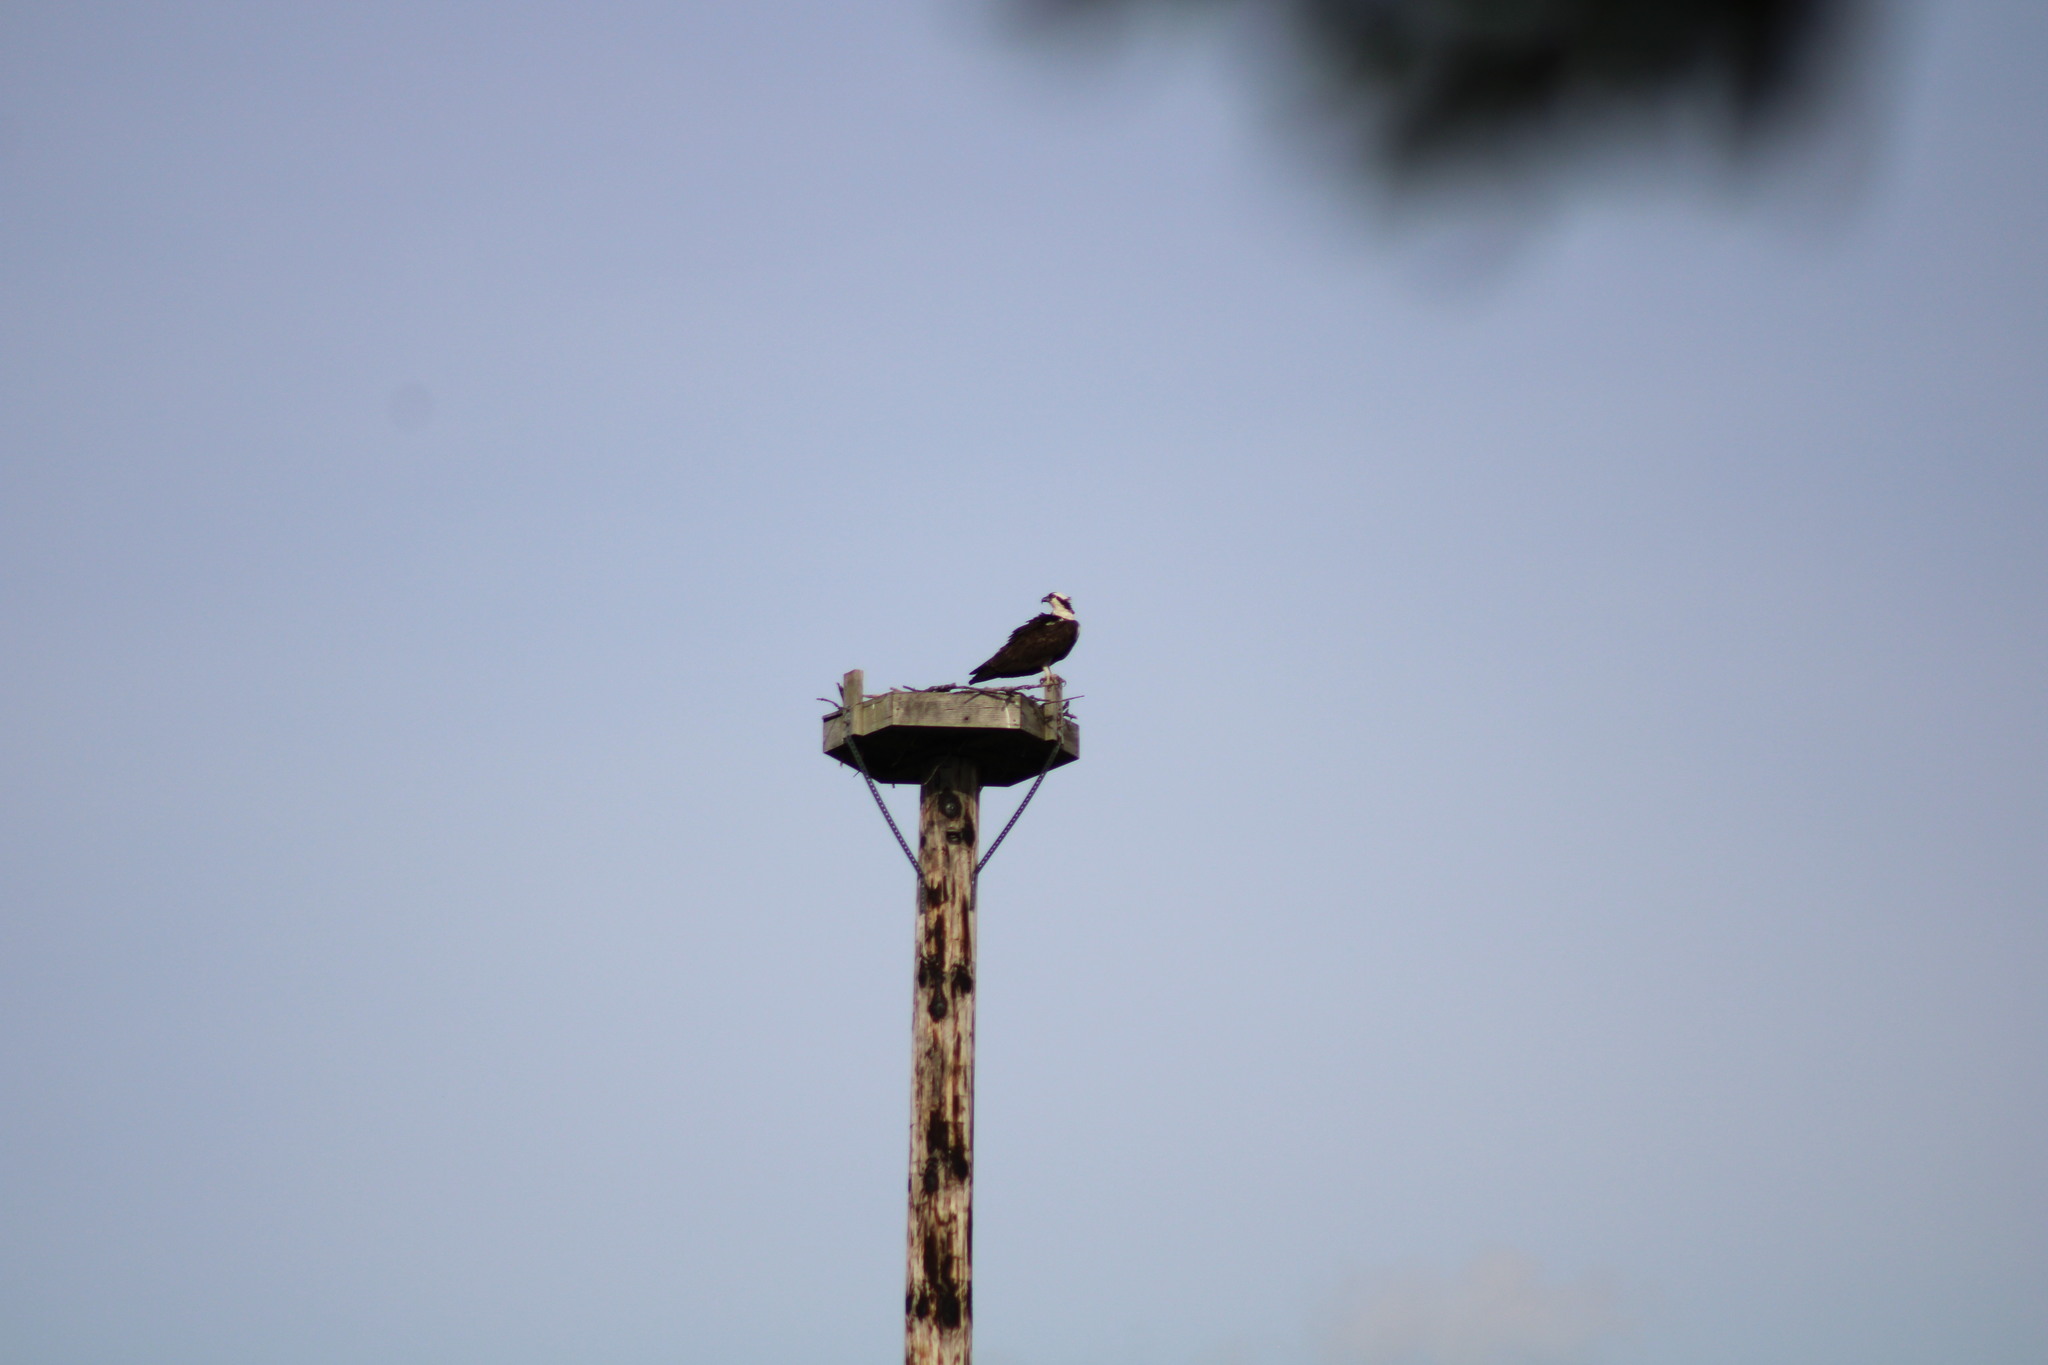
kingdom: Animalia
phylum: Chordata
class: Aves
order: Accipitriformes
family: Pandionidae
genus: Pandion
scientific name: Pandion haliaetus
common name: Osprey
